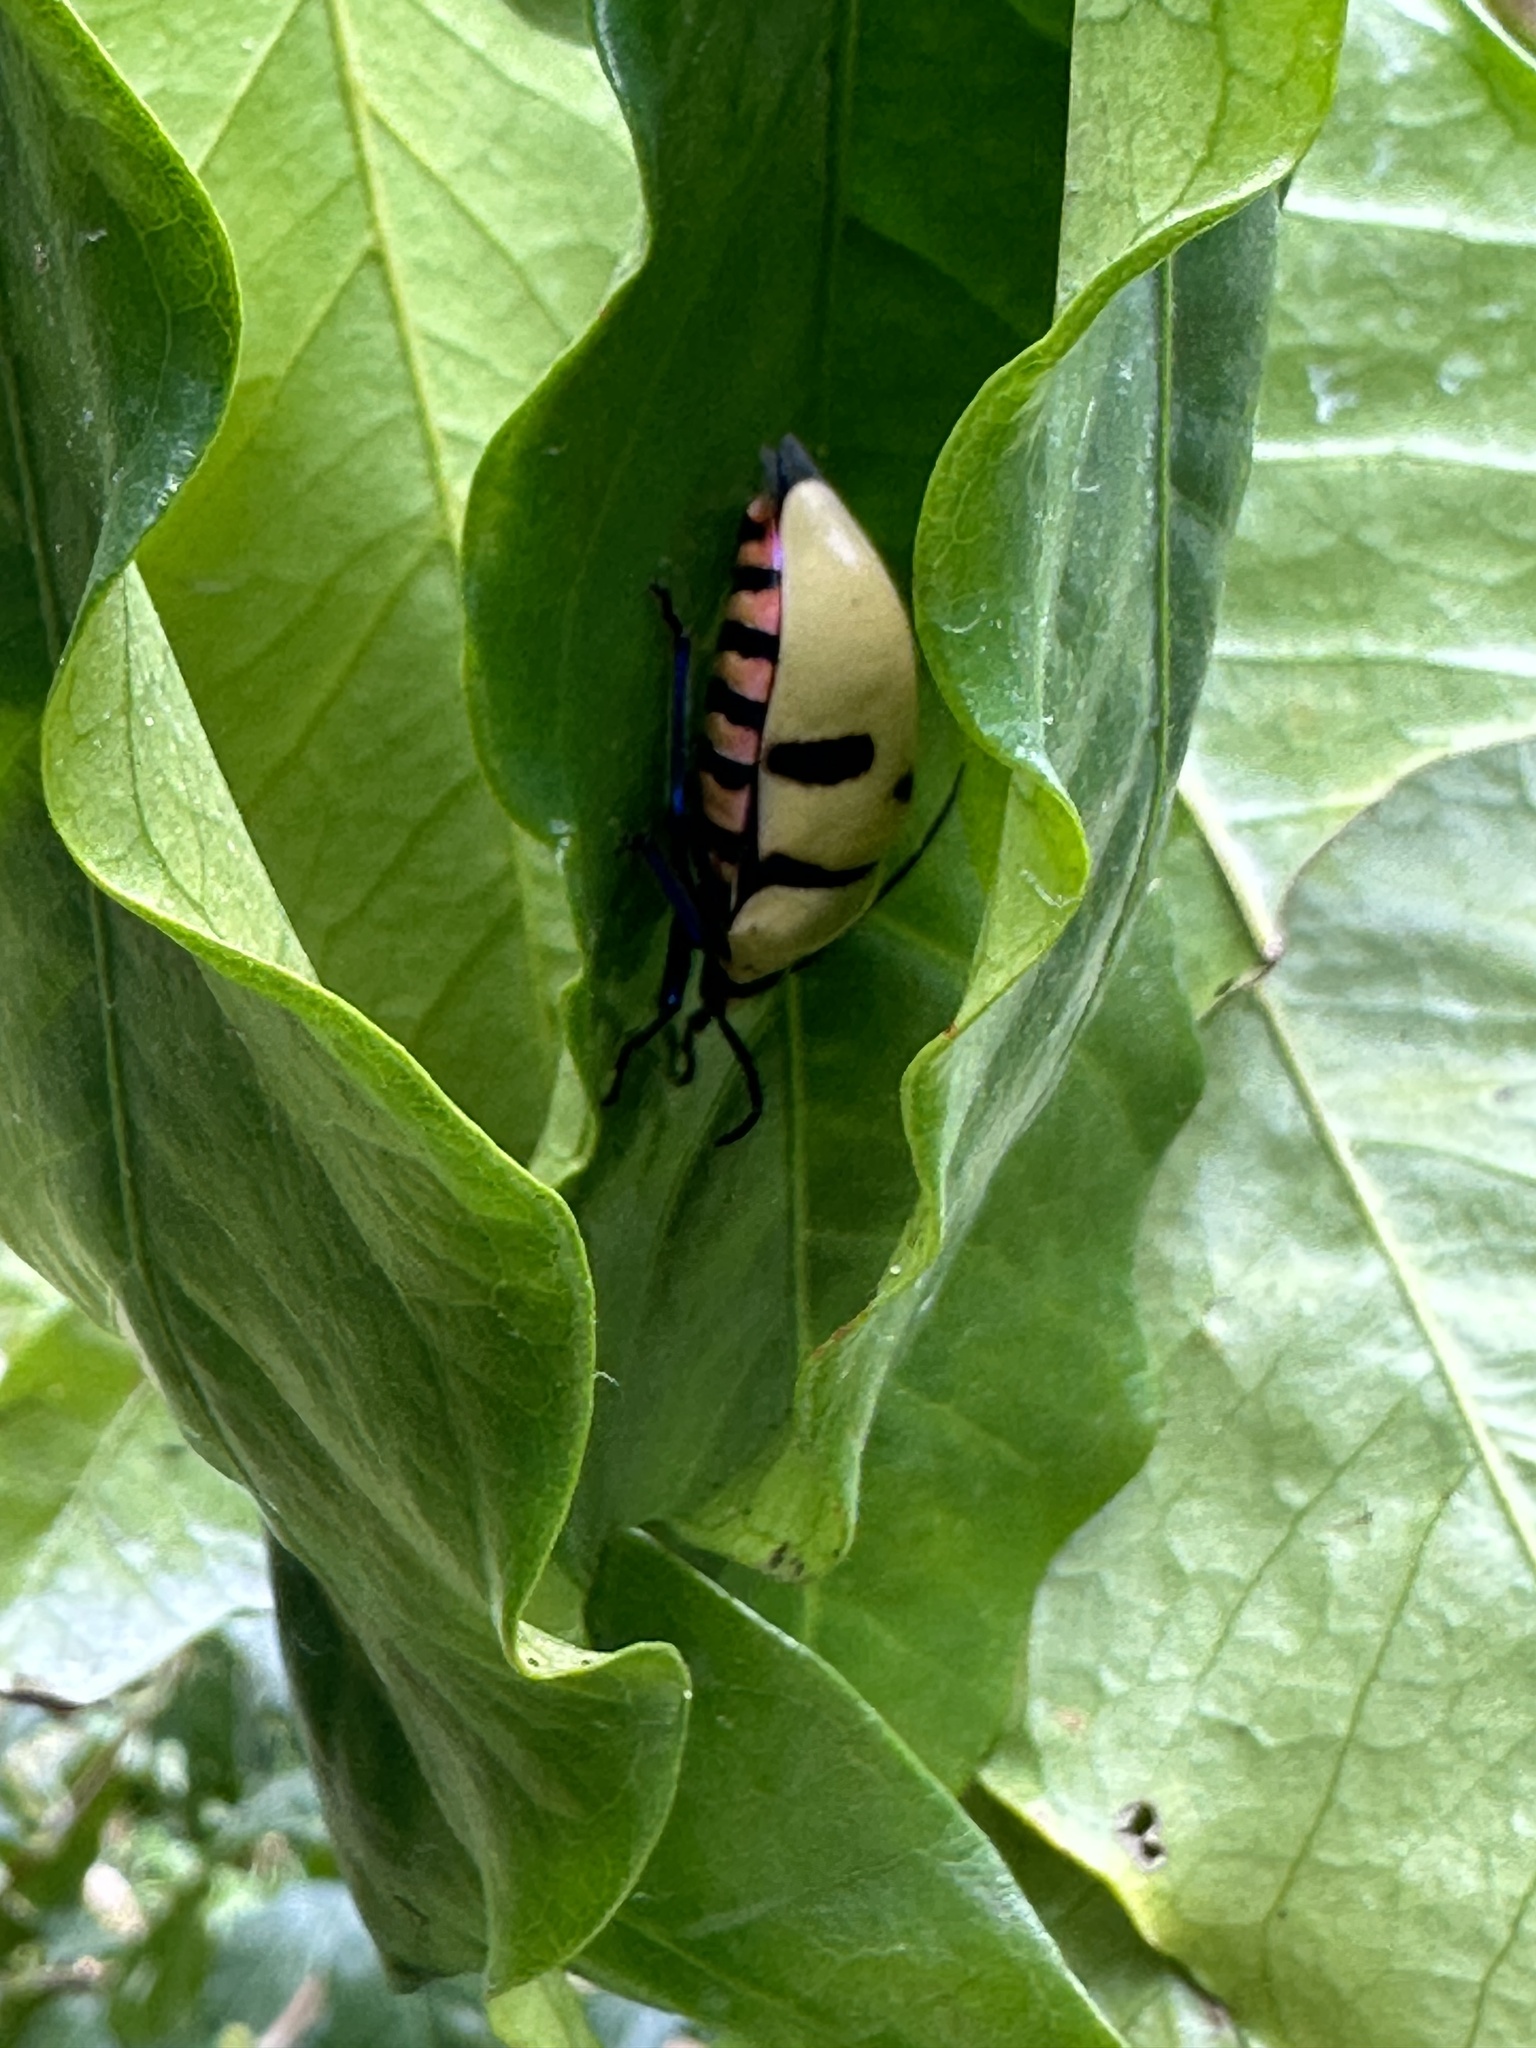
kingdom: Animalia
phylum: Arthropoda
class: Insecta
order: Hemiptera
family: Scutelleridae
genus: Eucorysses
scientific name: Eucorysses grandis
